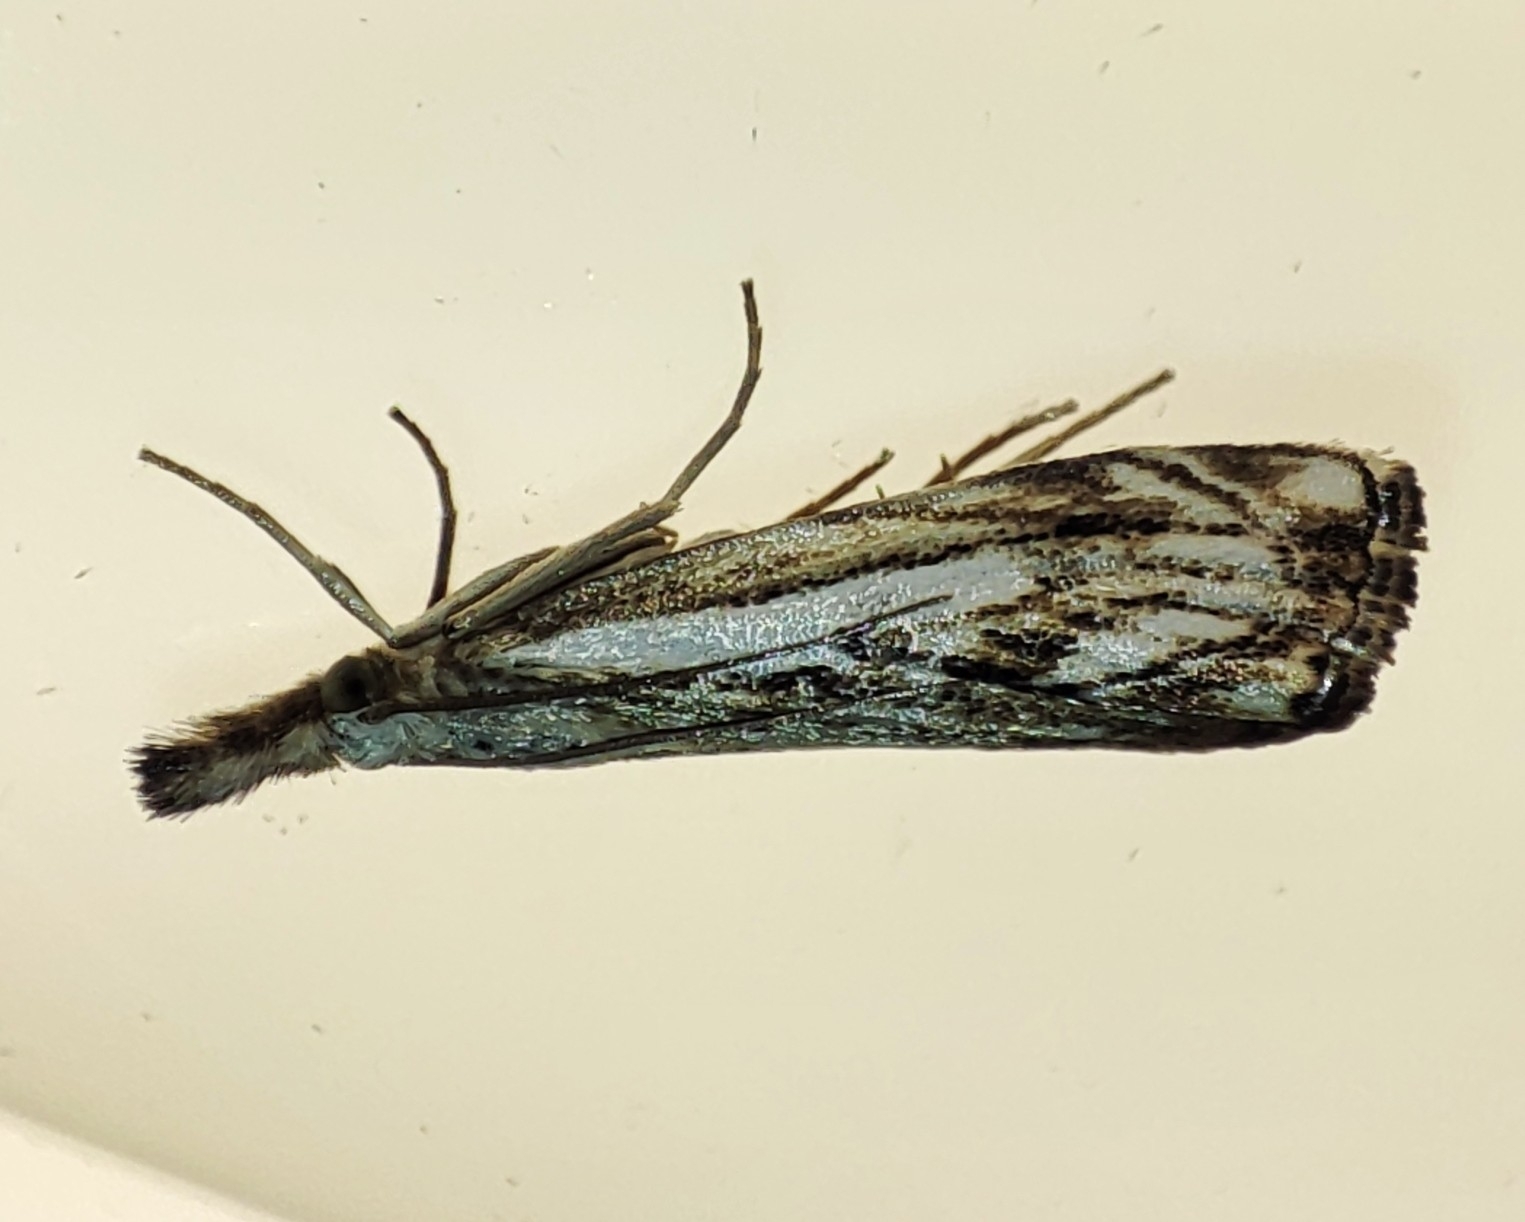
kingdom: Animalia
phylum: Arthropoda
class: Insecta
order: Lepidoptera
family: Crambidae
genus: Catoptria
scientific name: Catoptria falsella
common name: Chequered grass-veneer
